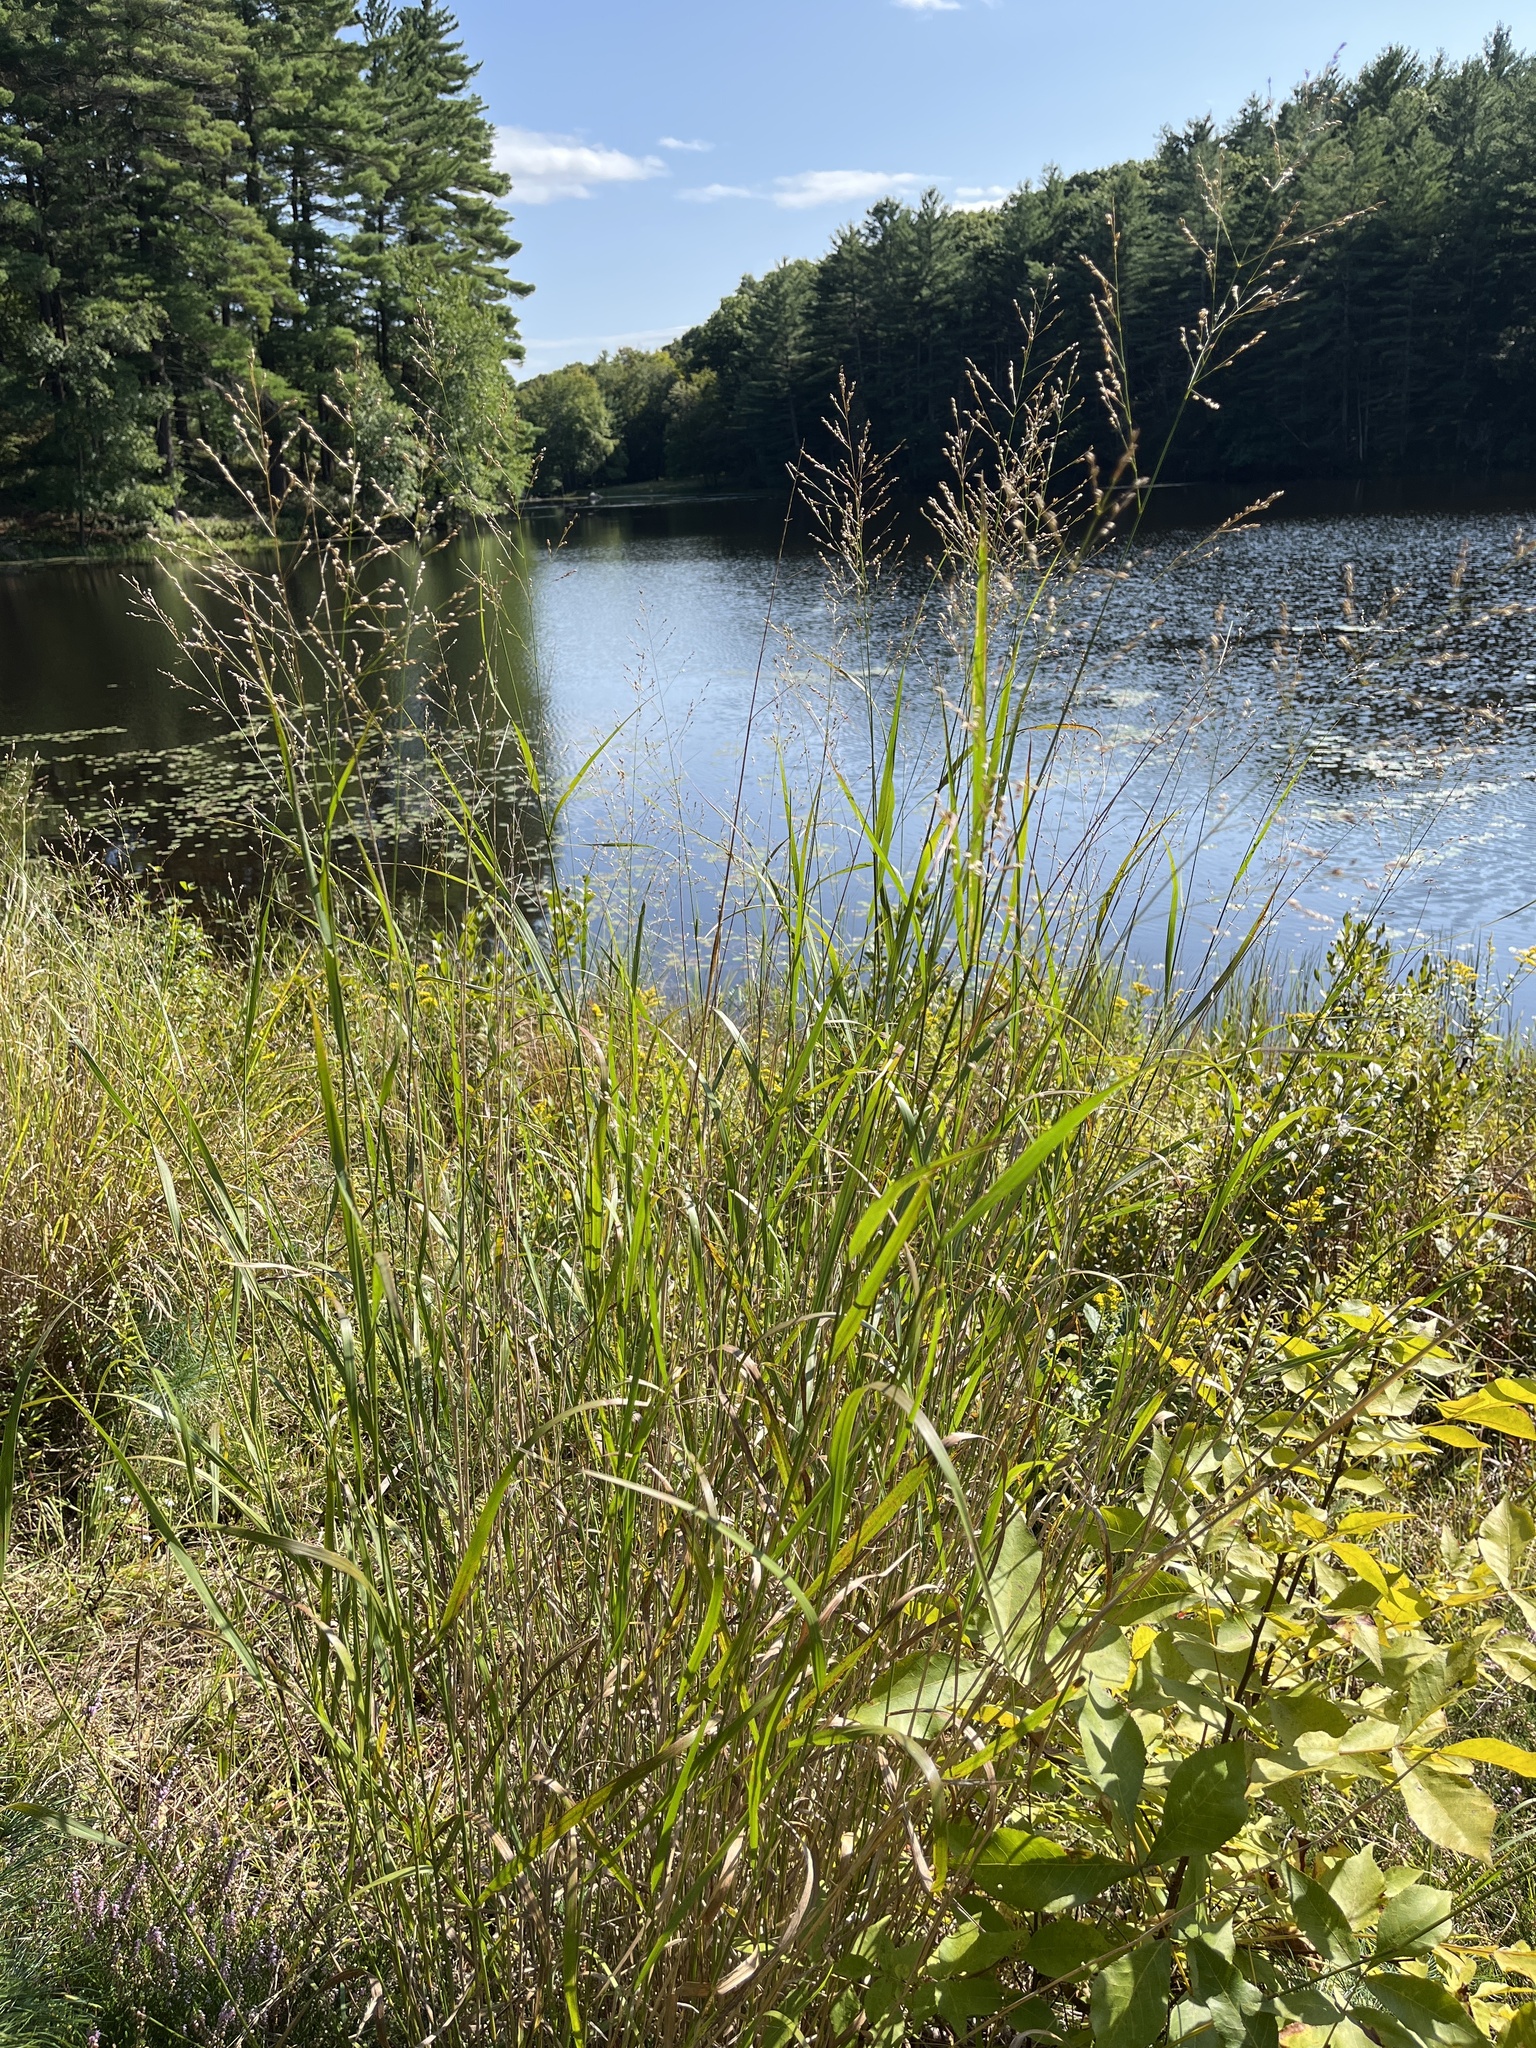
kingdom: Plantae
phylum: Tracheophyta
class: Liliopsida
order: Poales
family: Poaceae
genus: Panicum
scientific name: Panicum virgatum
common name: Switchgrass
